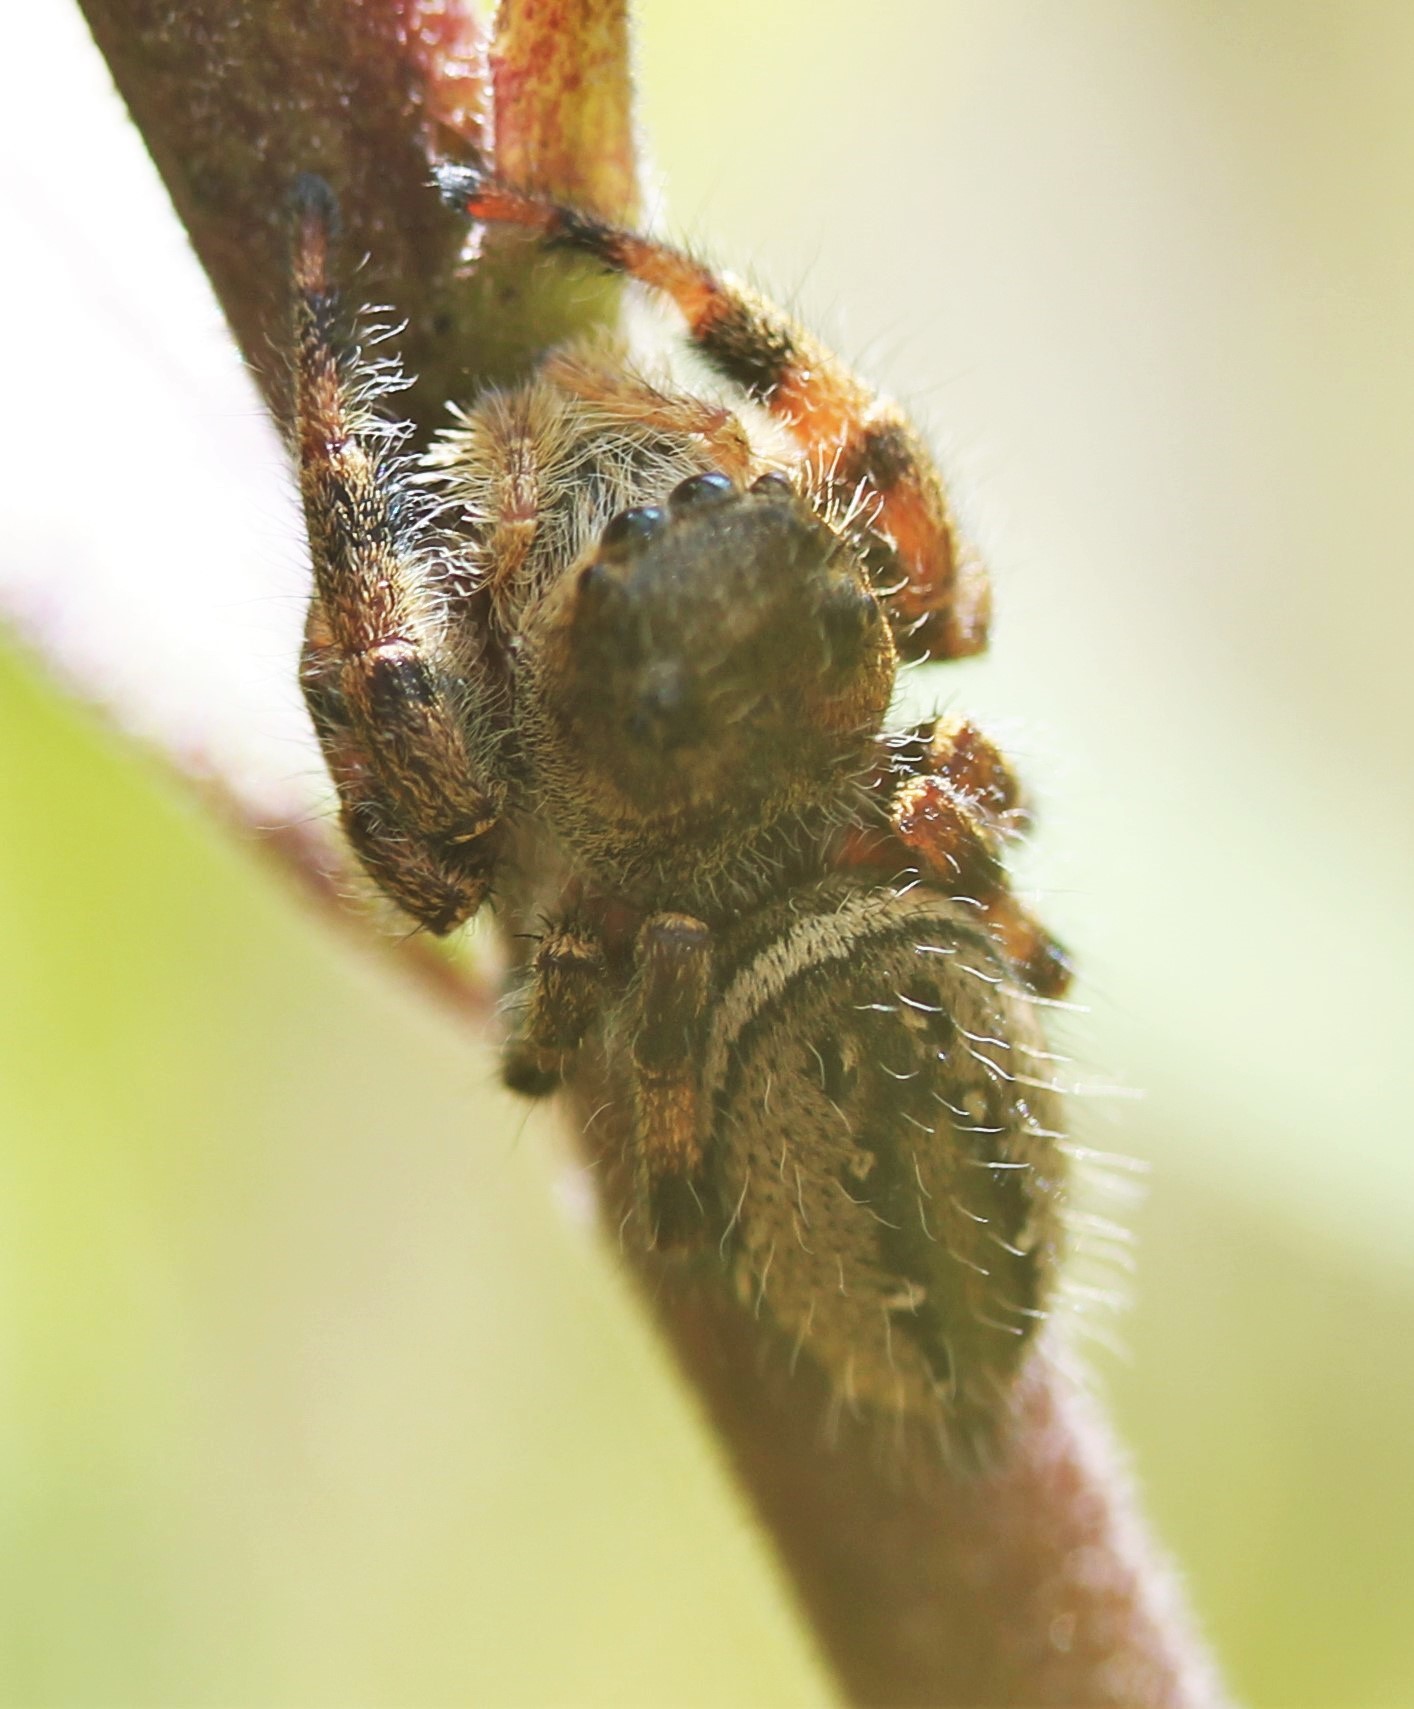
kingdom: Animalia
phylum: Arthropoda
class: Arachnida
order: Araneae
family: Salticidae
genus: Phidippus
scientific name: Phidippus clarus
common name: Brilliant jumping spider
